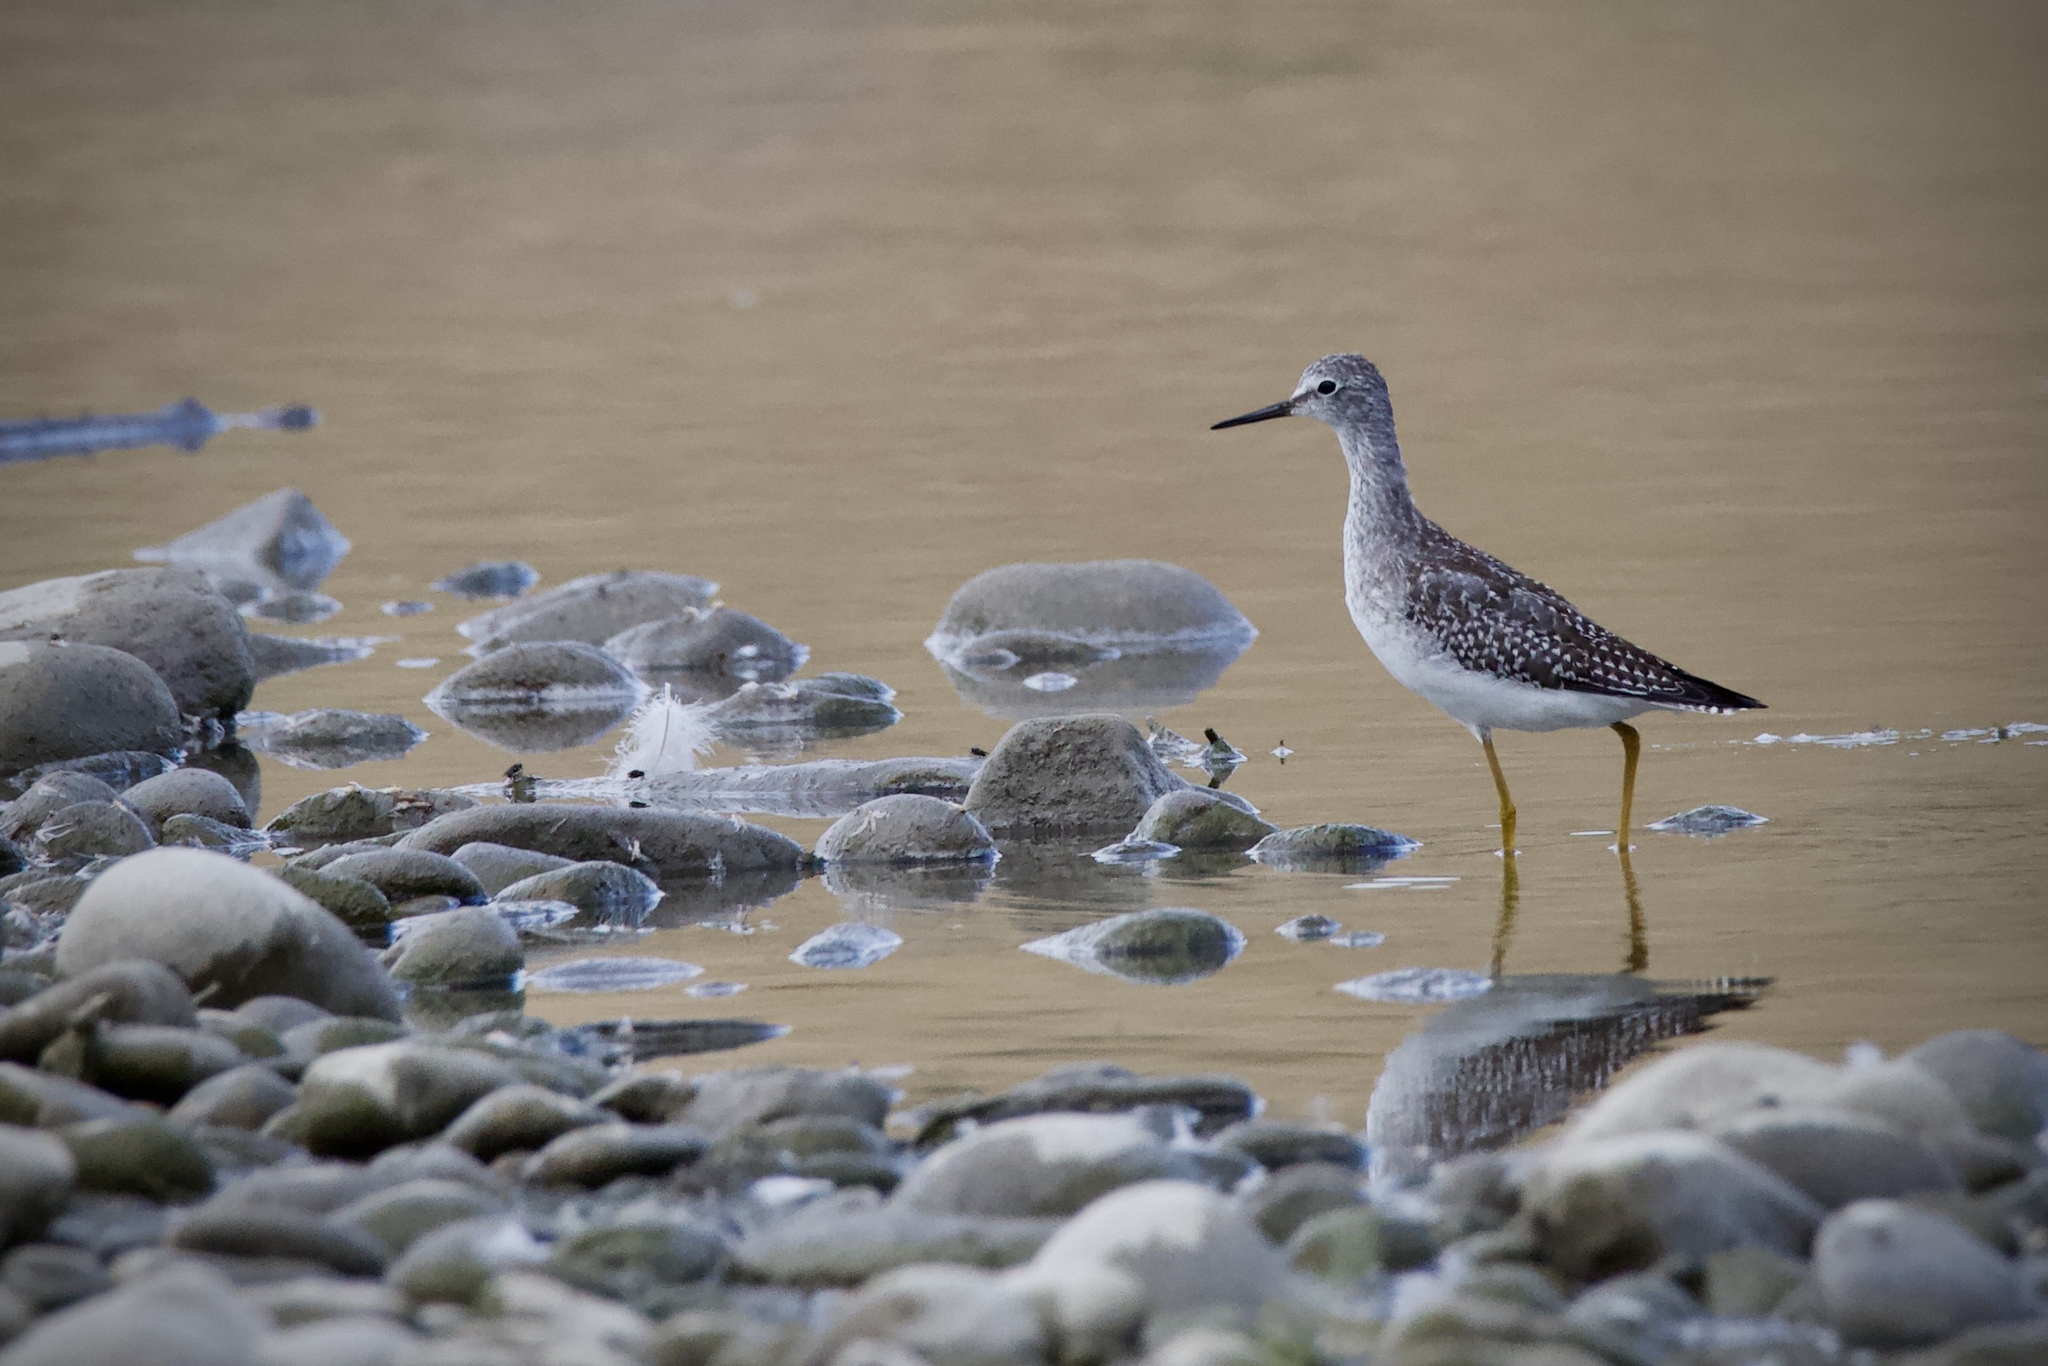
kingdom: Animalia
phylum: Chordata
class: Aves
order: Charadriiformes
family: Scolopacidae
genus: Tringa
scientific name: Tringa flavipes
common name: Lesser yellowlegs
